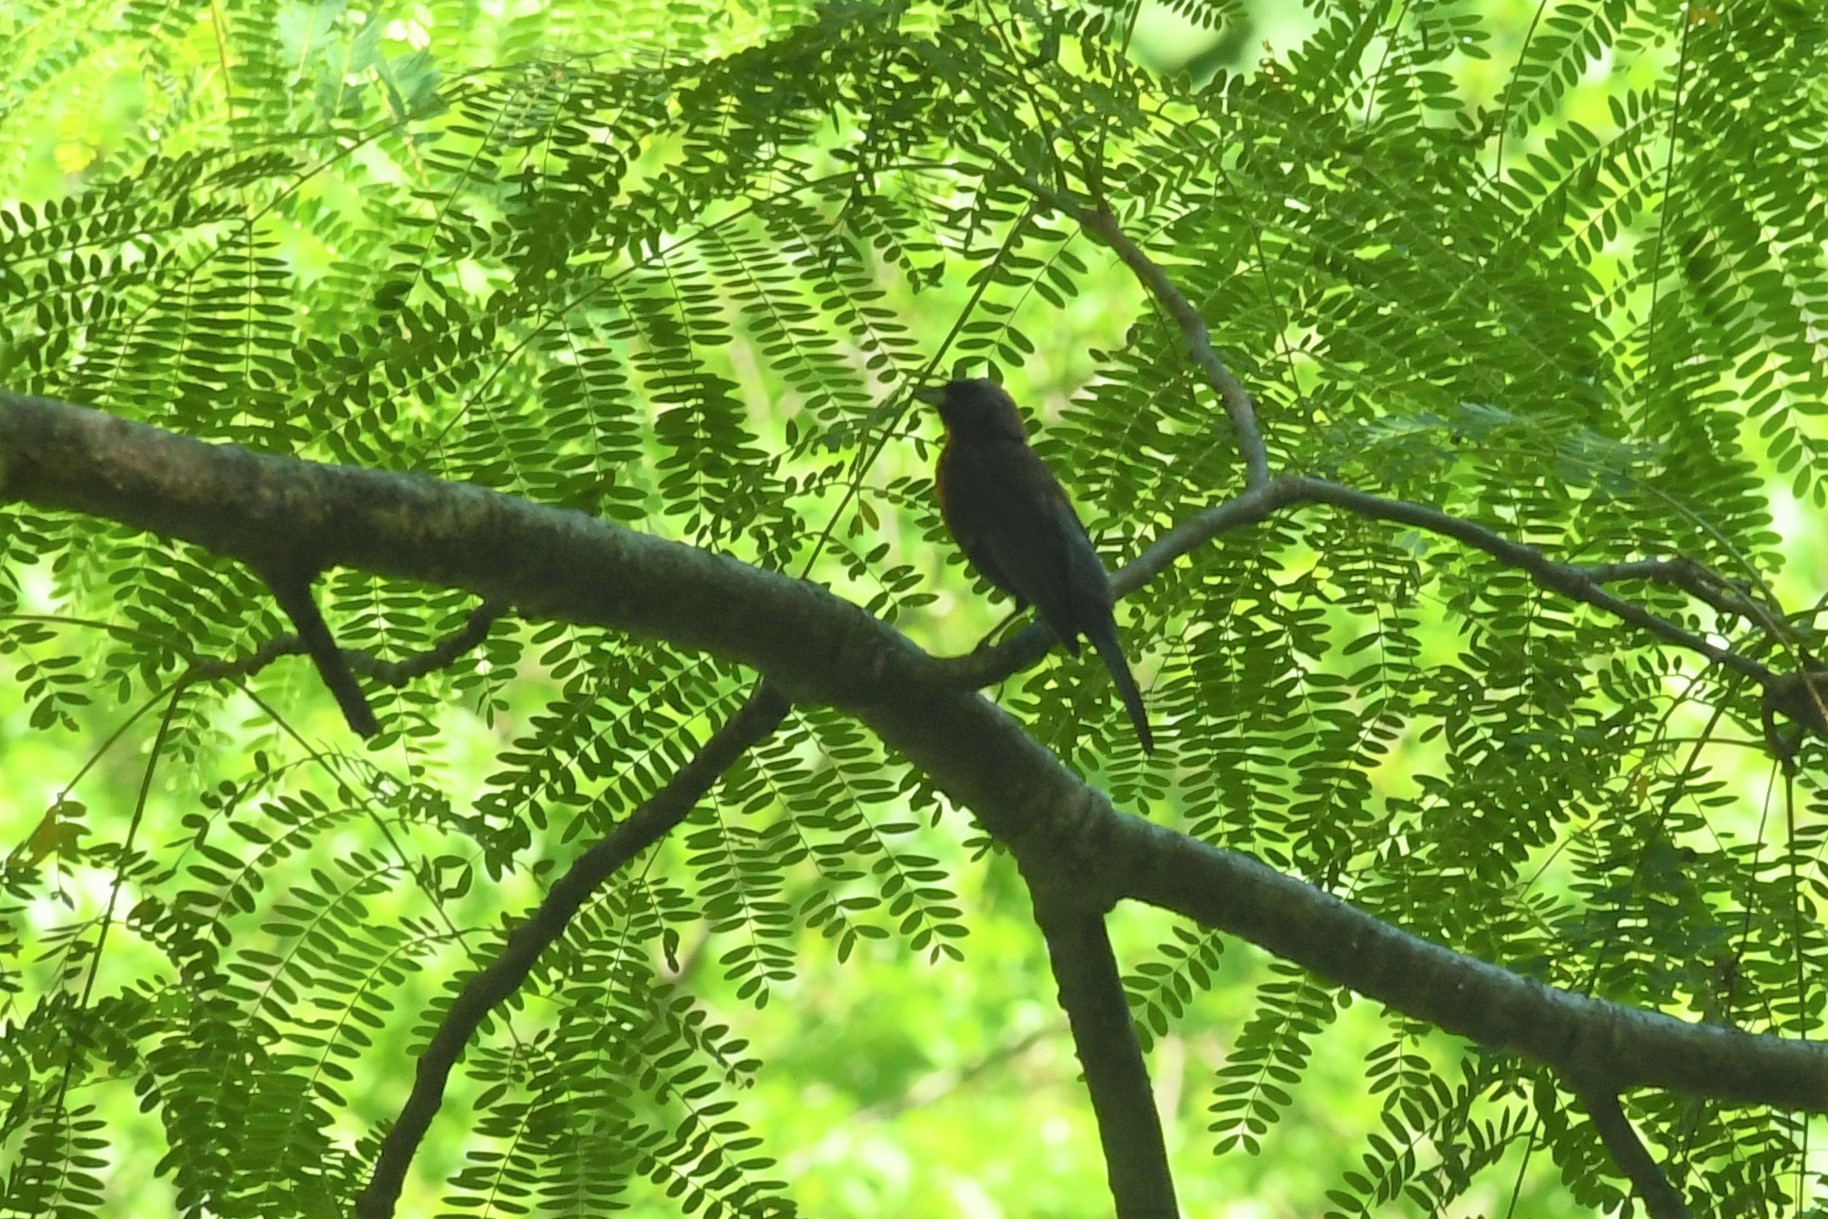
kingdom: Animalia
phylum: Chordata
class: Aves
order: Passeriformes
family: Cardinalidae
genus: Passerina
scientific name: Passerina versicolor
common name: Varied bunting
